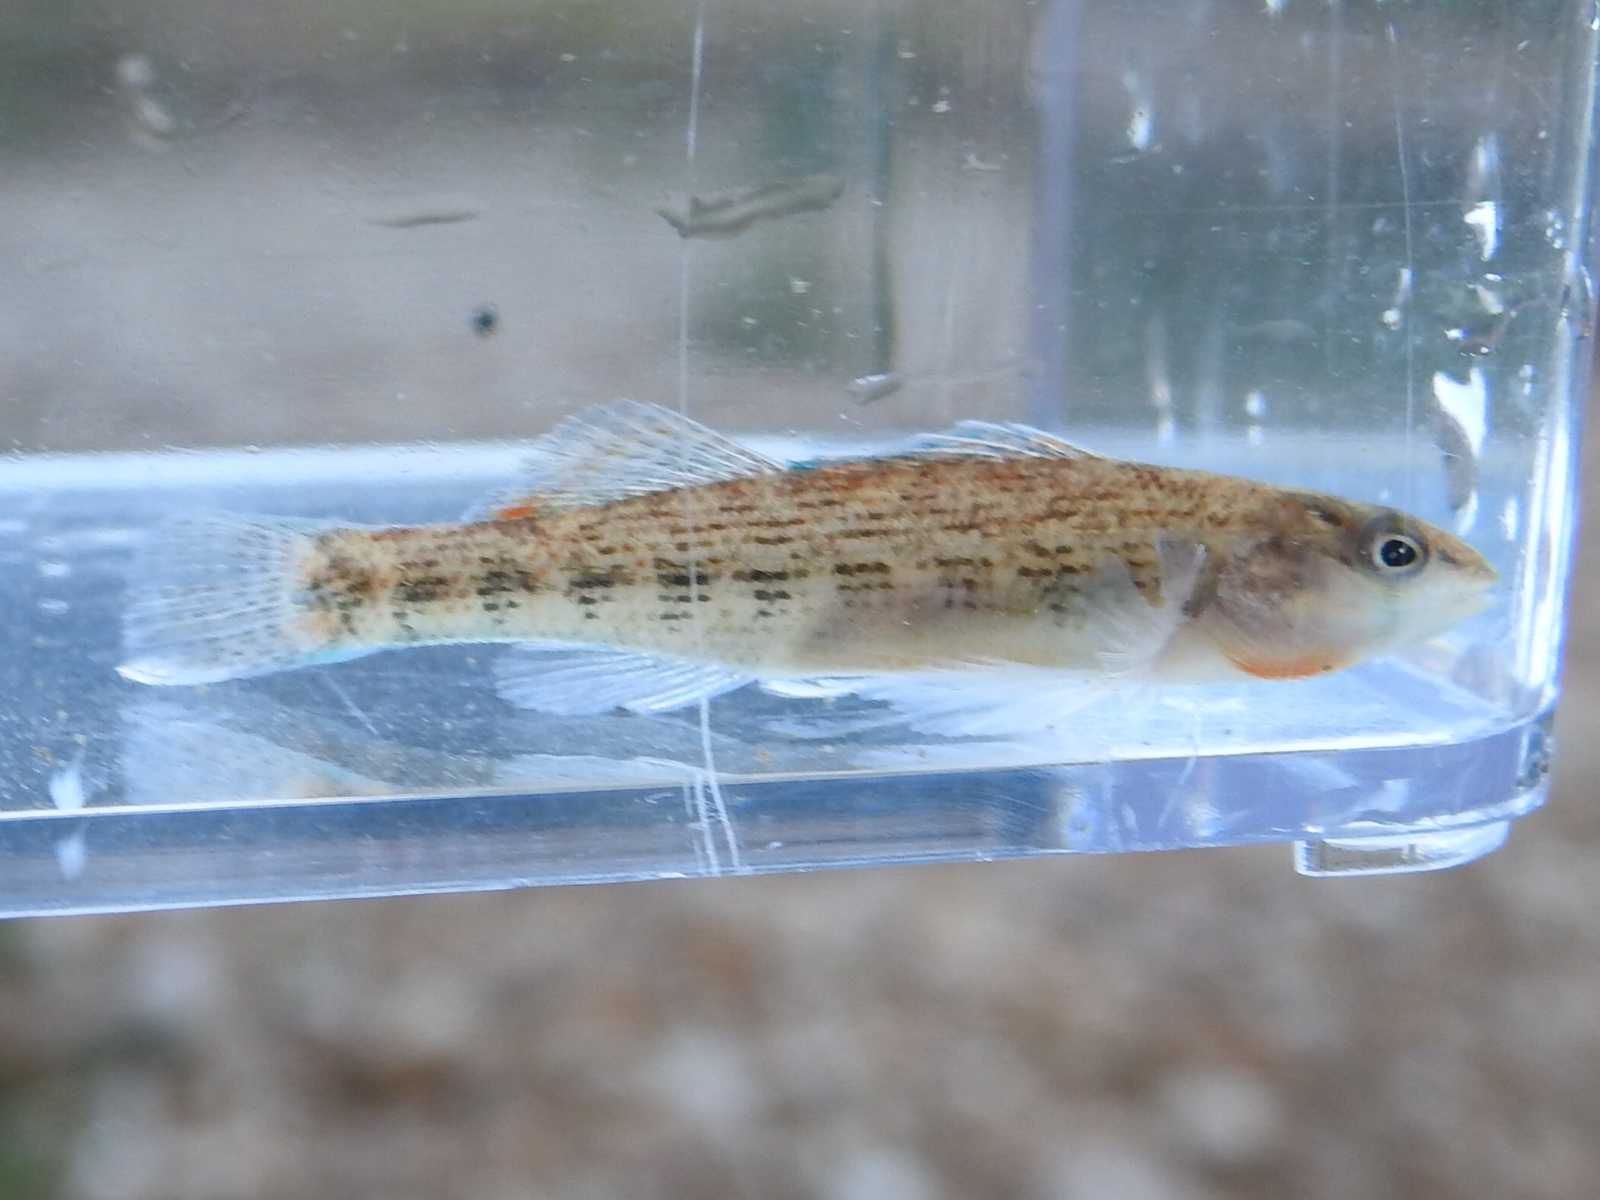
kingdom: Animalia
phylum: Chordata
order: Perciformes
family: Percidae
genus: Etheostoma
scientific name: Etheostoma spectabile
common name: Orangethroat darter
